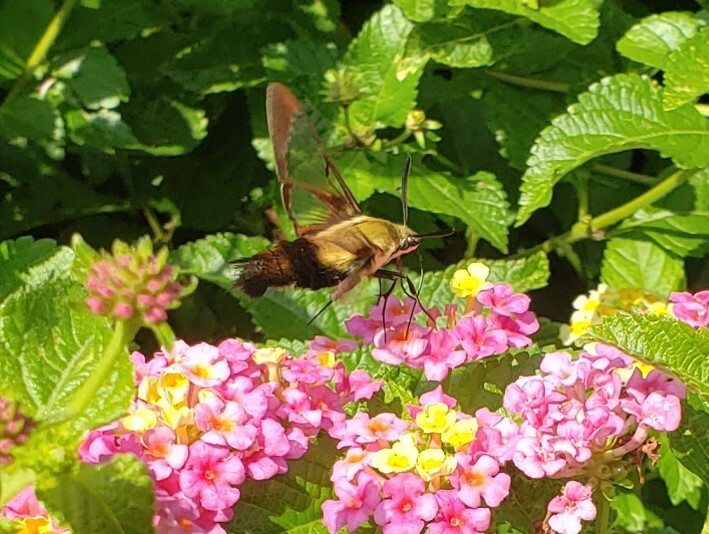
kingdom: Animalia
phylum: Arthropoda
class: Insecta
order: Lepidoptera
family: Sphingidae
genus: Hemaris
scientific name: Hemaris diffinis
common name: Bumblebee moth
